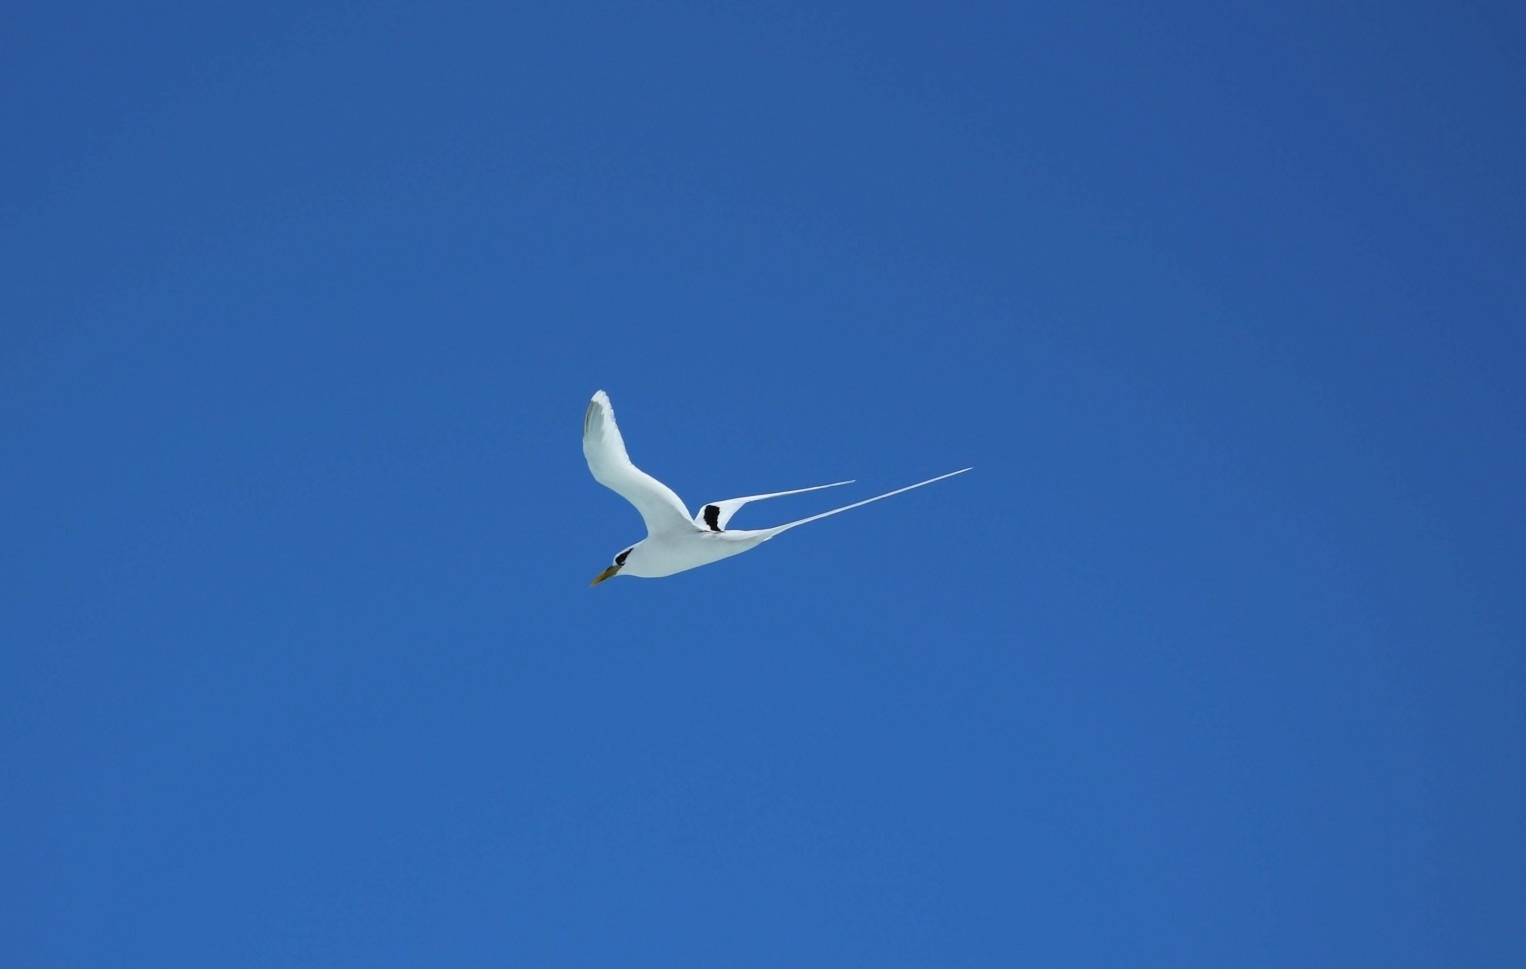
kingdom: Animalia
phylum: Chordata
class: Aves
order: Phaethontiformes
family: Phaethontidae
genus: Phaethon
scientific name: Phaethon lepturus
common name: White-tailed tropicbird
